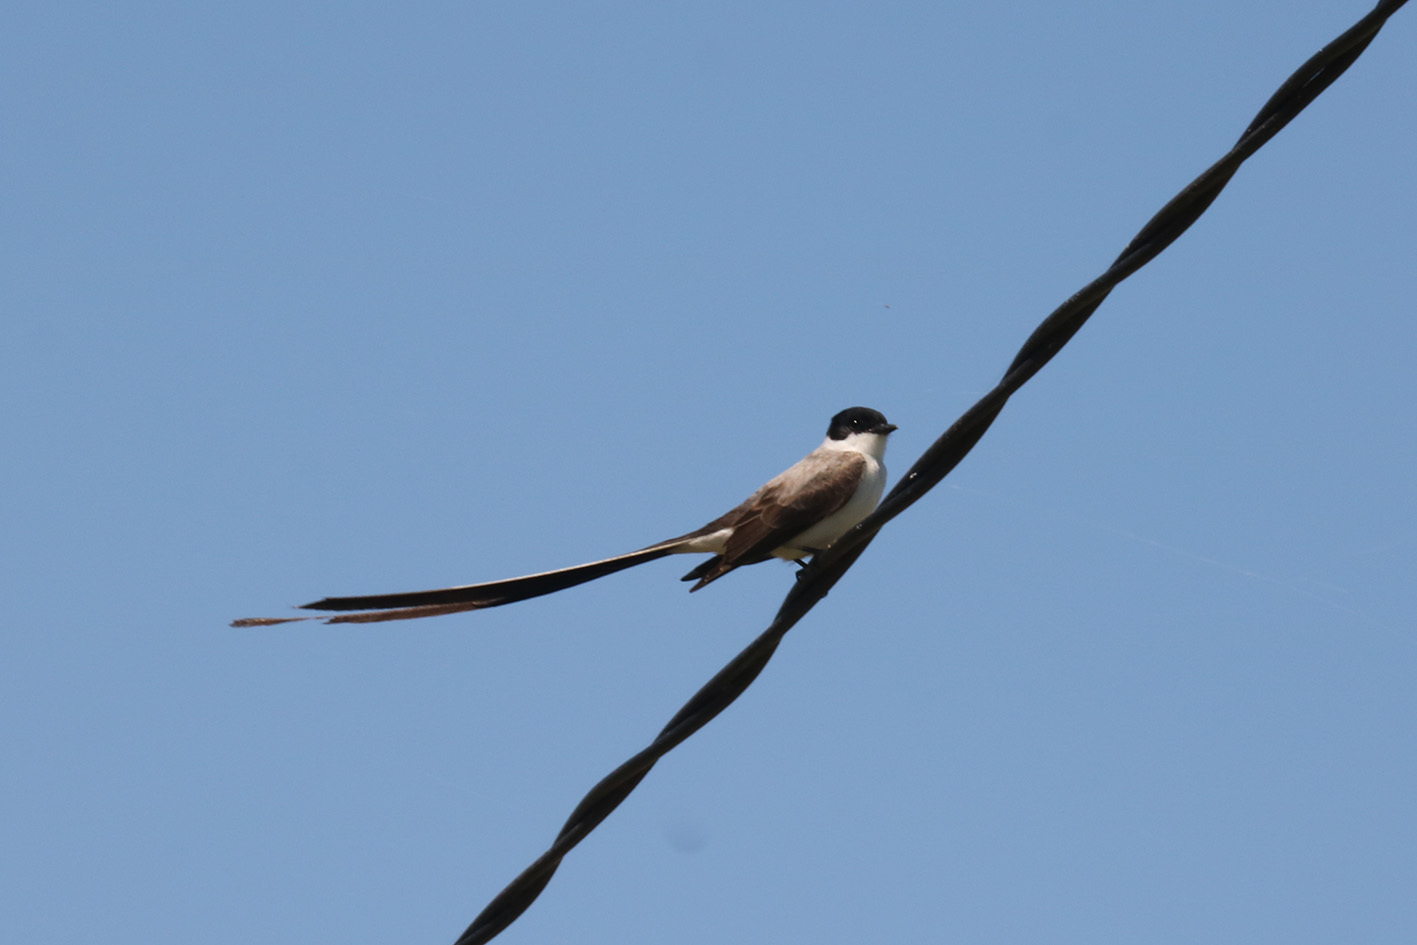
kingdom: Animalia
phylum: Chordata
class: Aves
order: Passeriformes
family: Tyrannidae
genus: Tyrannus
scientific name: Tyrannus savana
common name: Fork-tailed flycatcher
